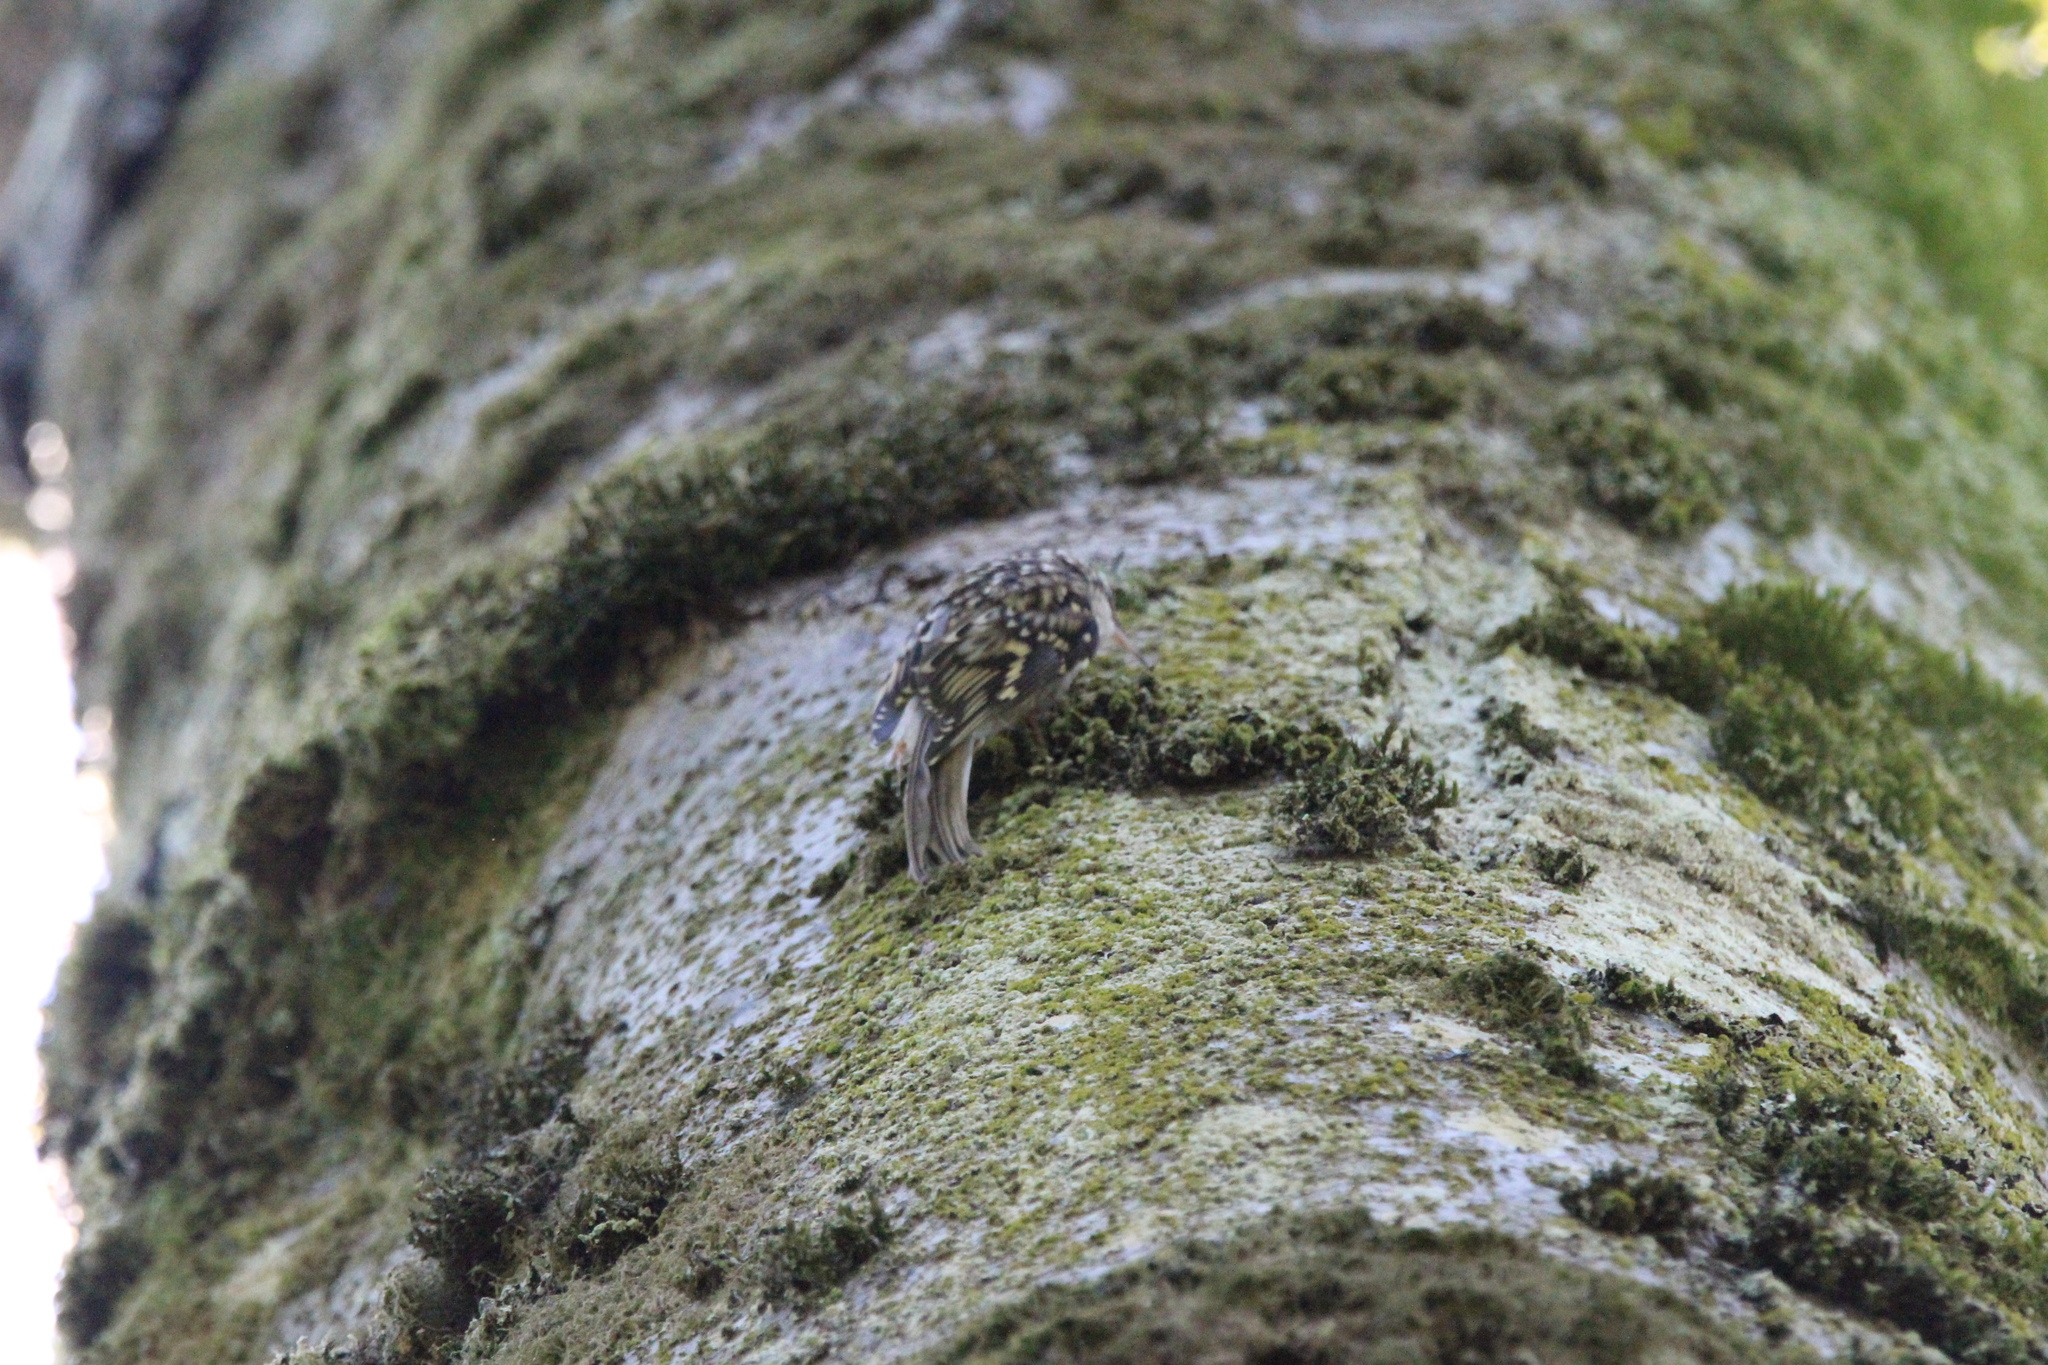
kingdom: Animalia
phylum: Chordata
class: Aves
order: Passeriformes
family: Certhiidae
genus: Certhia
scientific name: Certhia americana
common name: Brown creeper
